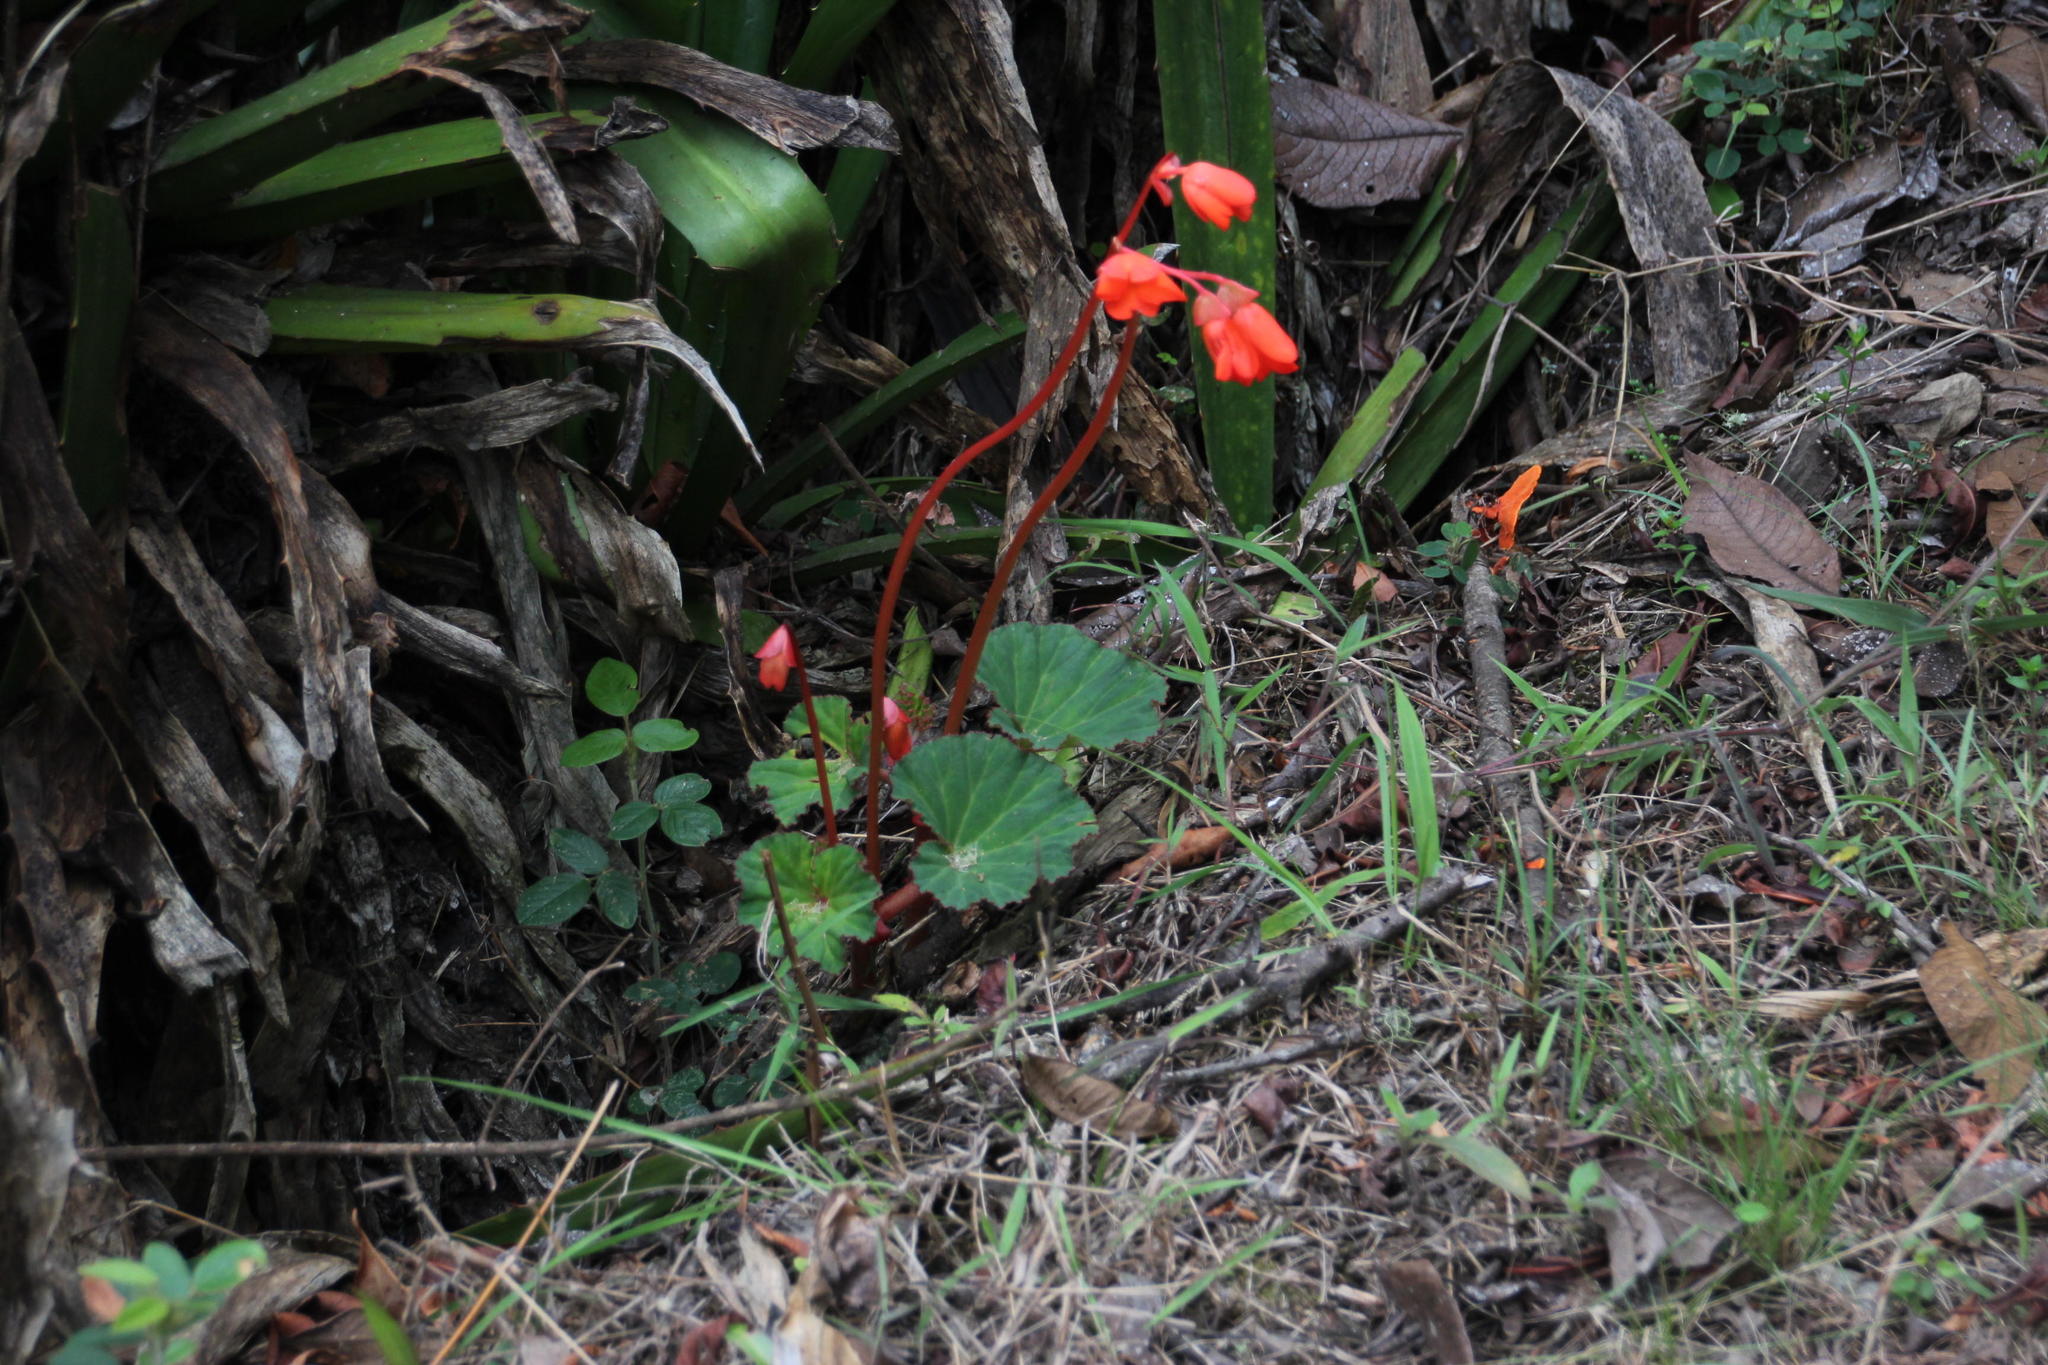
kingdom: Plantae
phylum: Tracheophyta
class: Magnoliopsida
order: Cucurbitales
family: Begoniaceae
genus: Begonia
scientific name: Begonia veitchii
